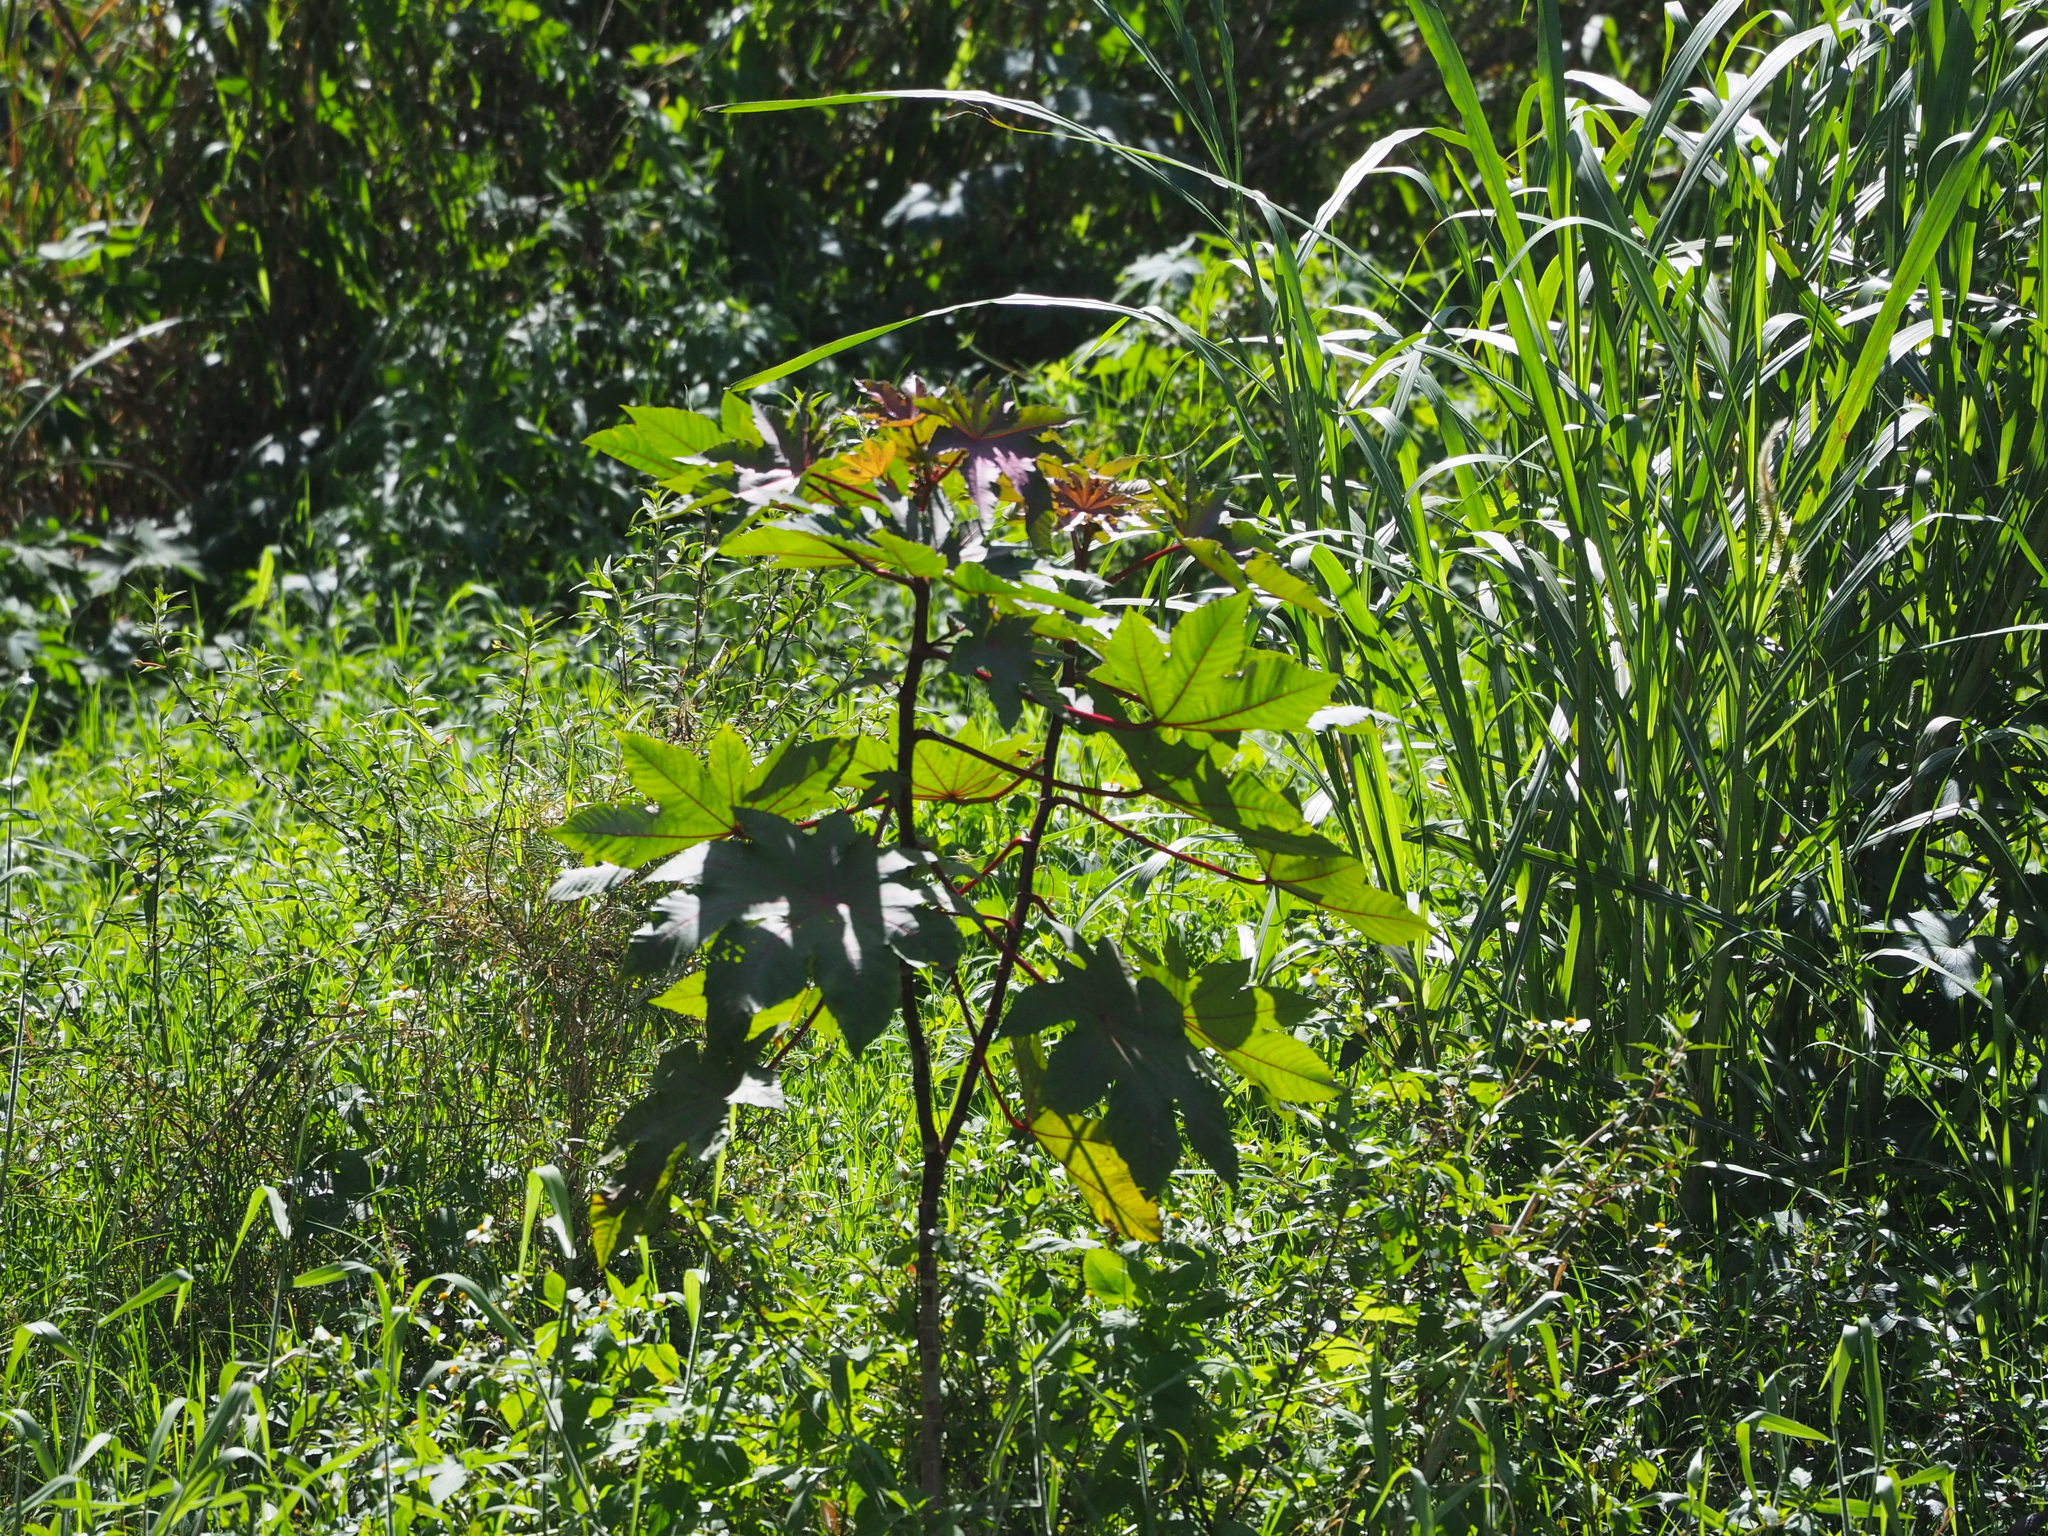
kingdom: Plantae
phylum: Tracheophyta
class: Magnoliopsida
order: Malpighiales
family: Euphorbiaceae
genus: Ricinus
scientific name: Ricinus communis
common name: Castor-oil-plant
